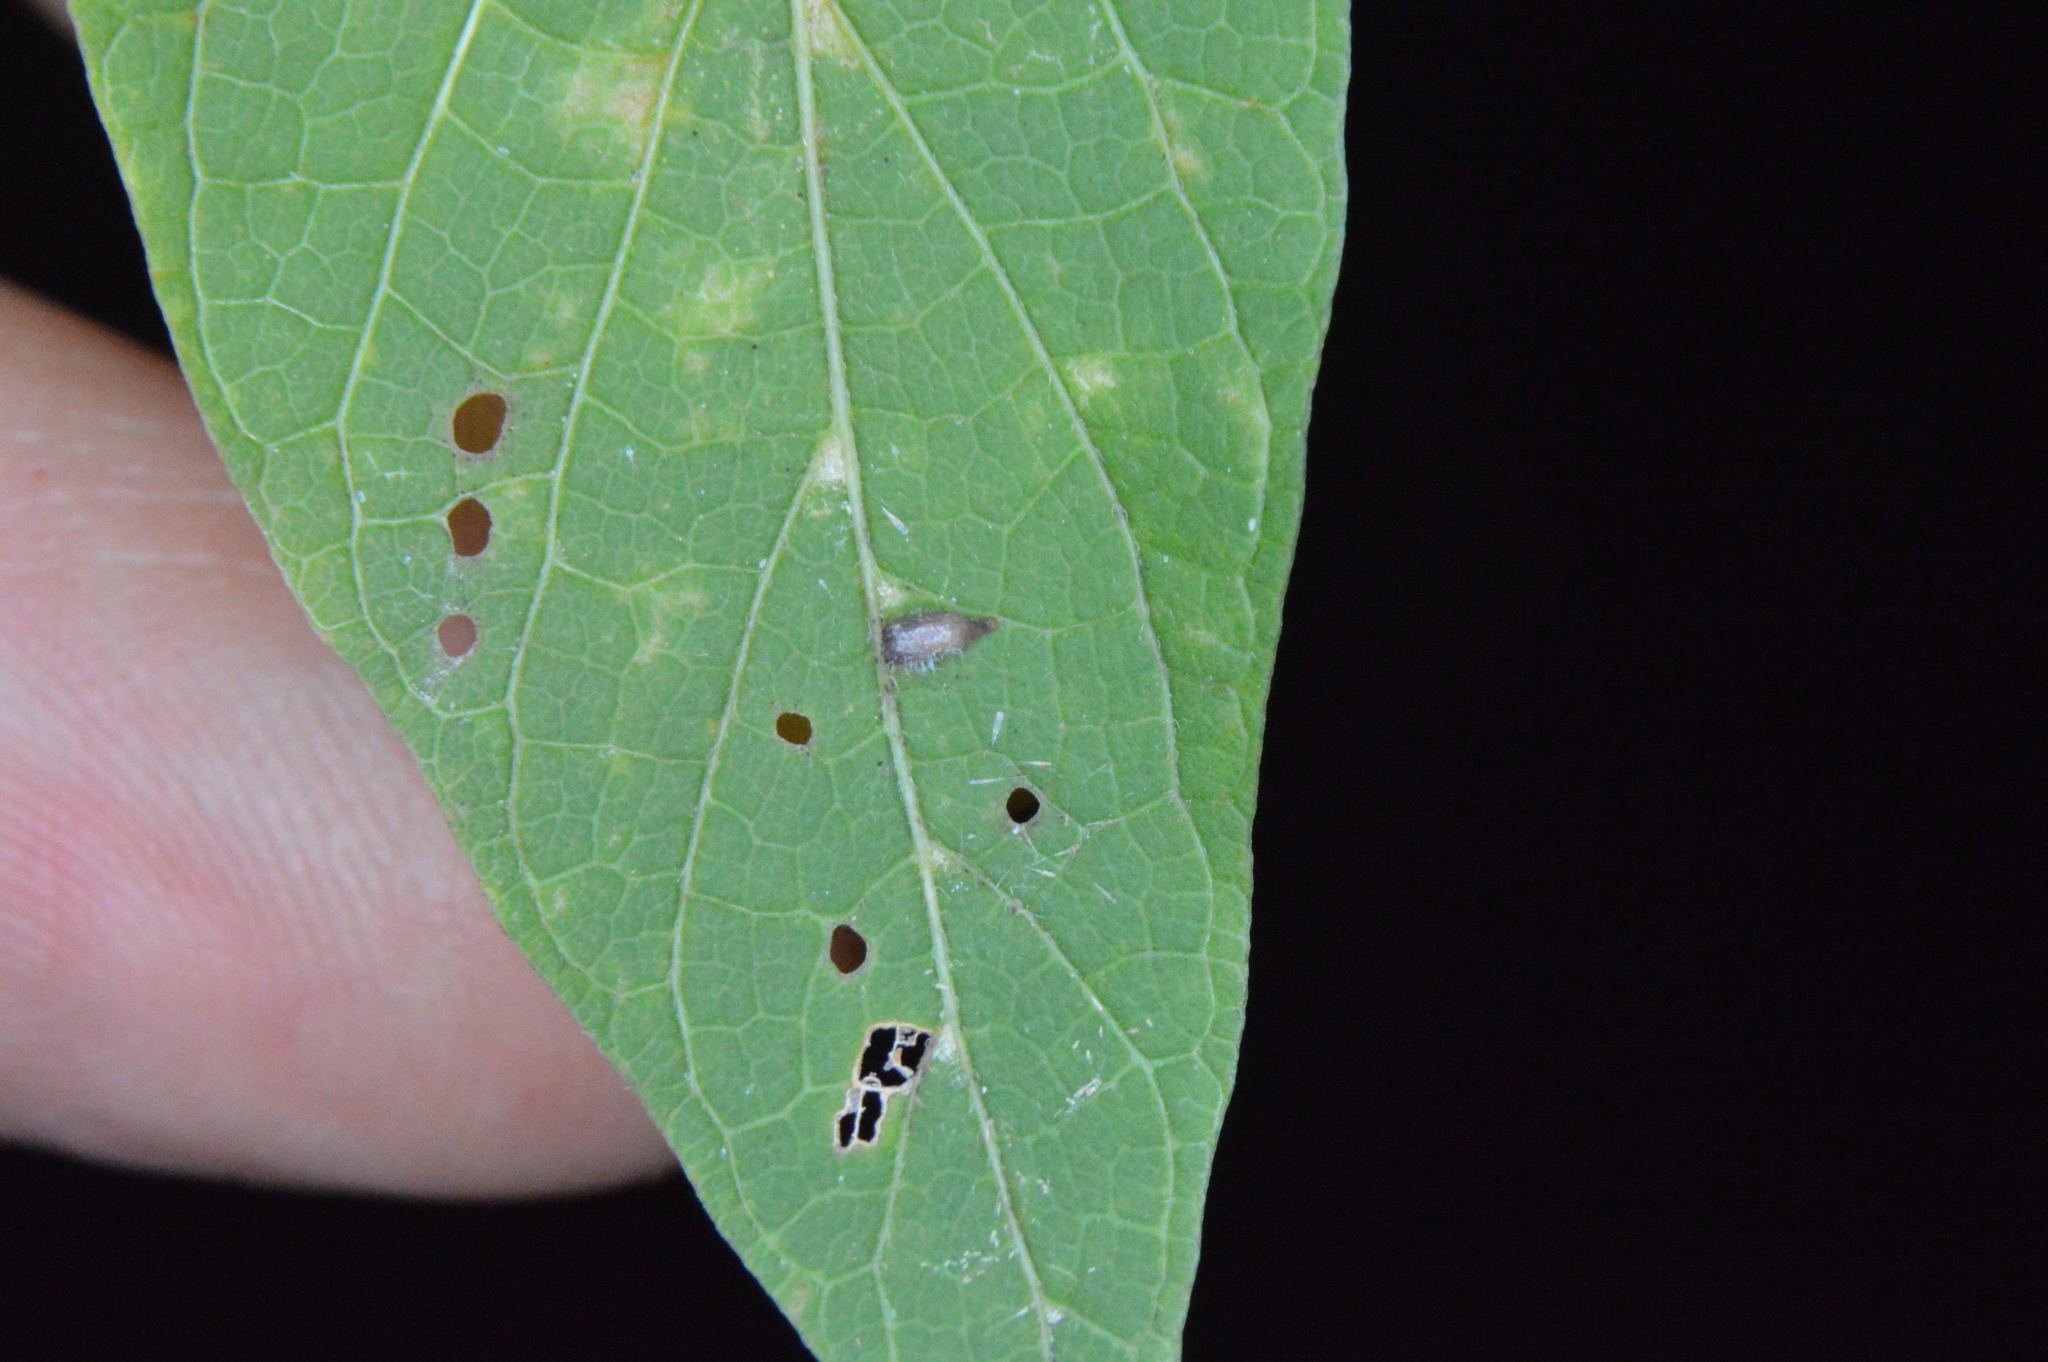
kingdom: Animalia
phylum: Arthropoda
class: Insecta
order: Diptera
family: Cecidomyiidae
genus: Celticecis
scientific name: Celticecis supina
